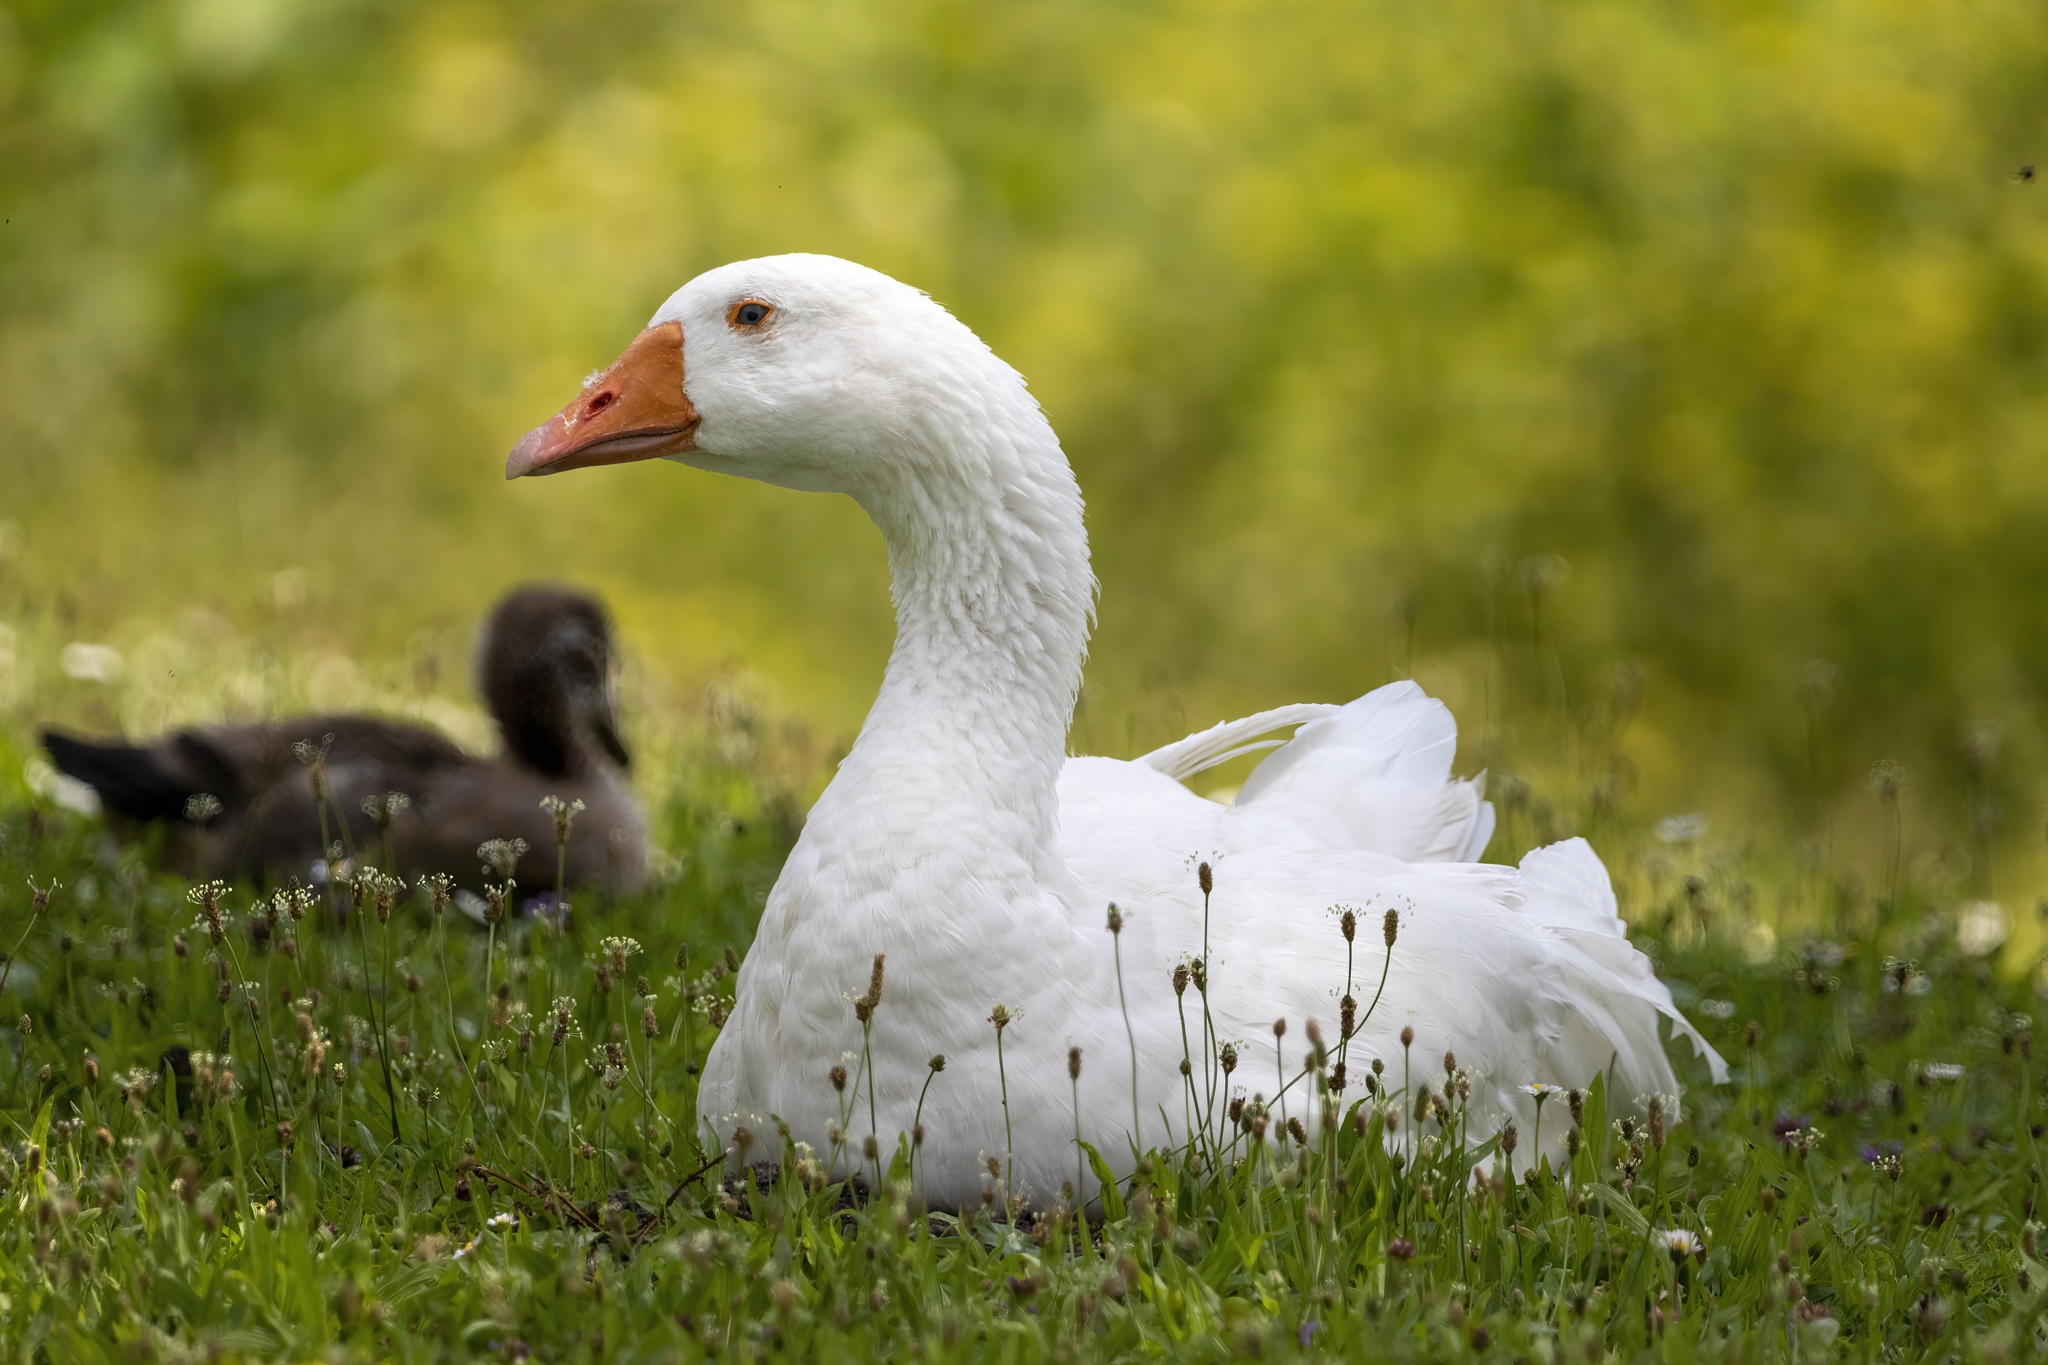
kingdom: Animalia
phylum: Chordata
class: Aves
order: Anseriformes
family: Anatidae
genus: Anser
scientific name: Anser anser
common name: Greylag goose
